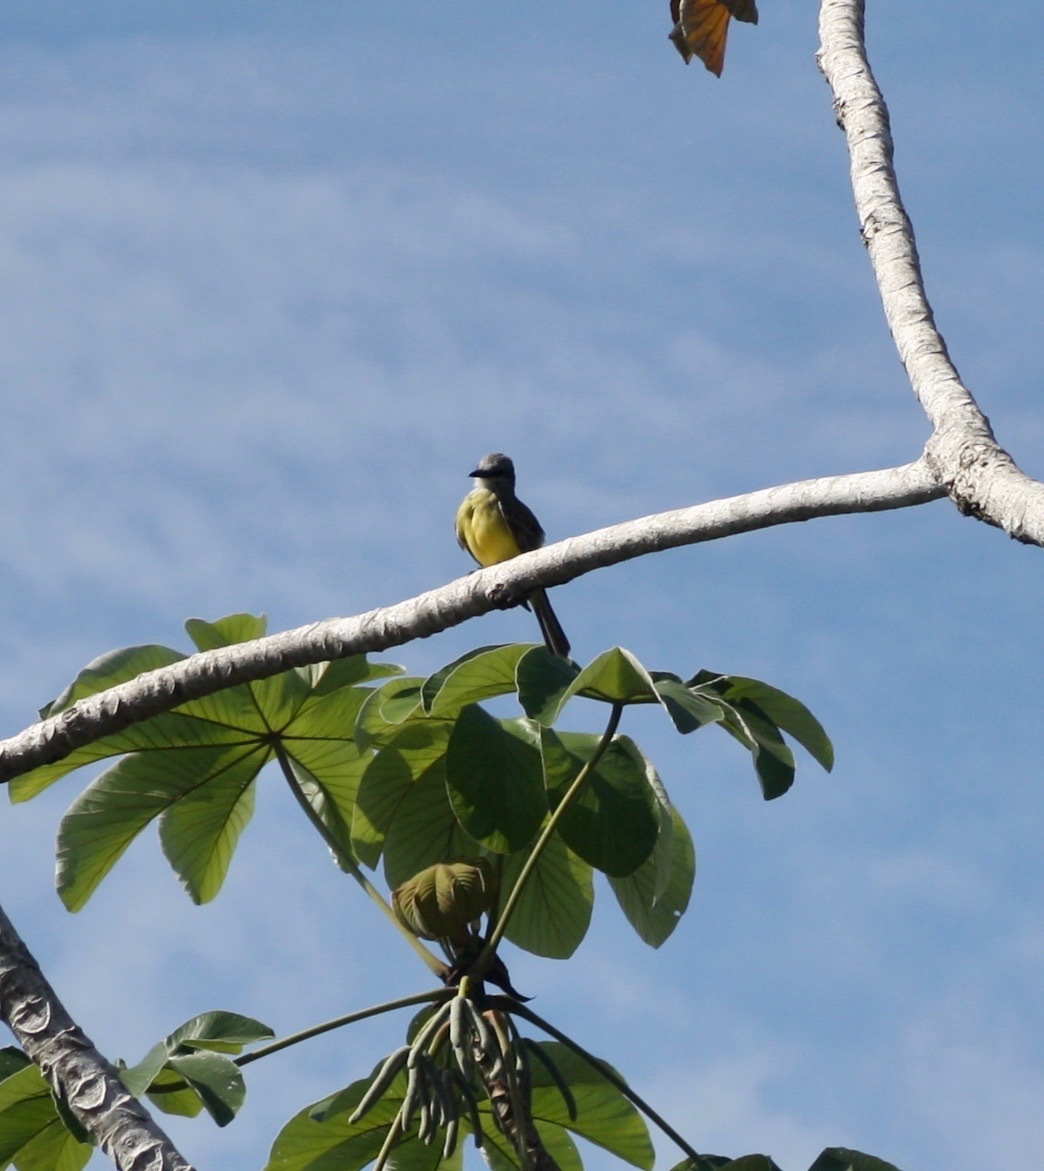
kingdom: Animalia
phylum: Chordata
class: Aves
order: Passeriformes
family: Tyrannidae
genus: Tyrannus
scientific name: Tyrannus melancholicus
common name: Tropical kingbird
